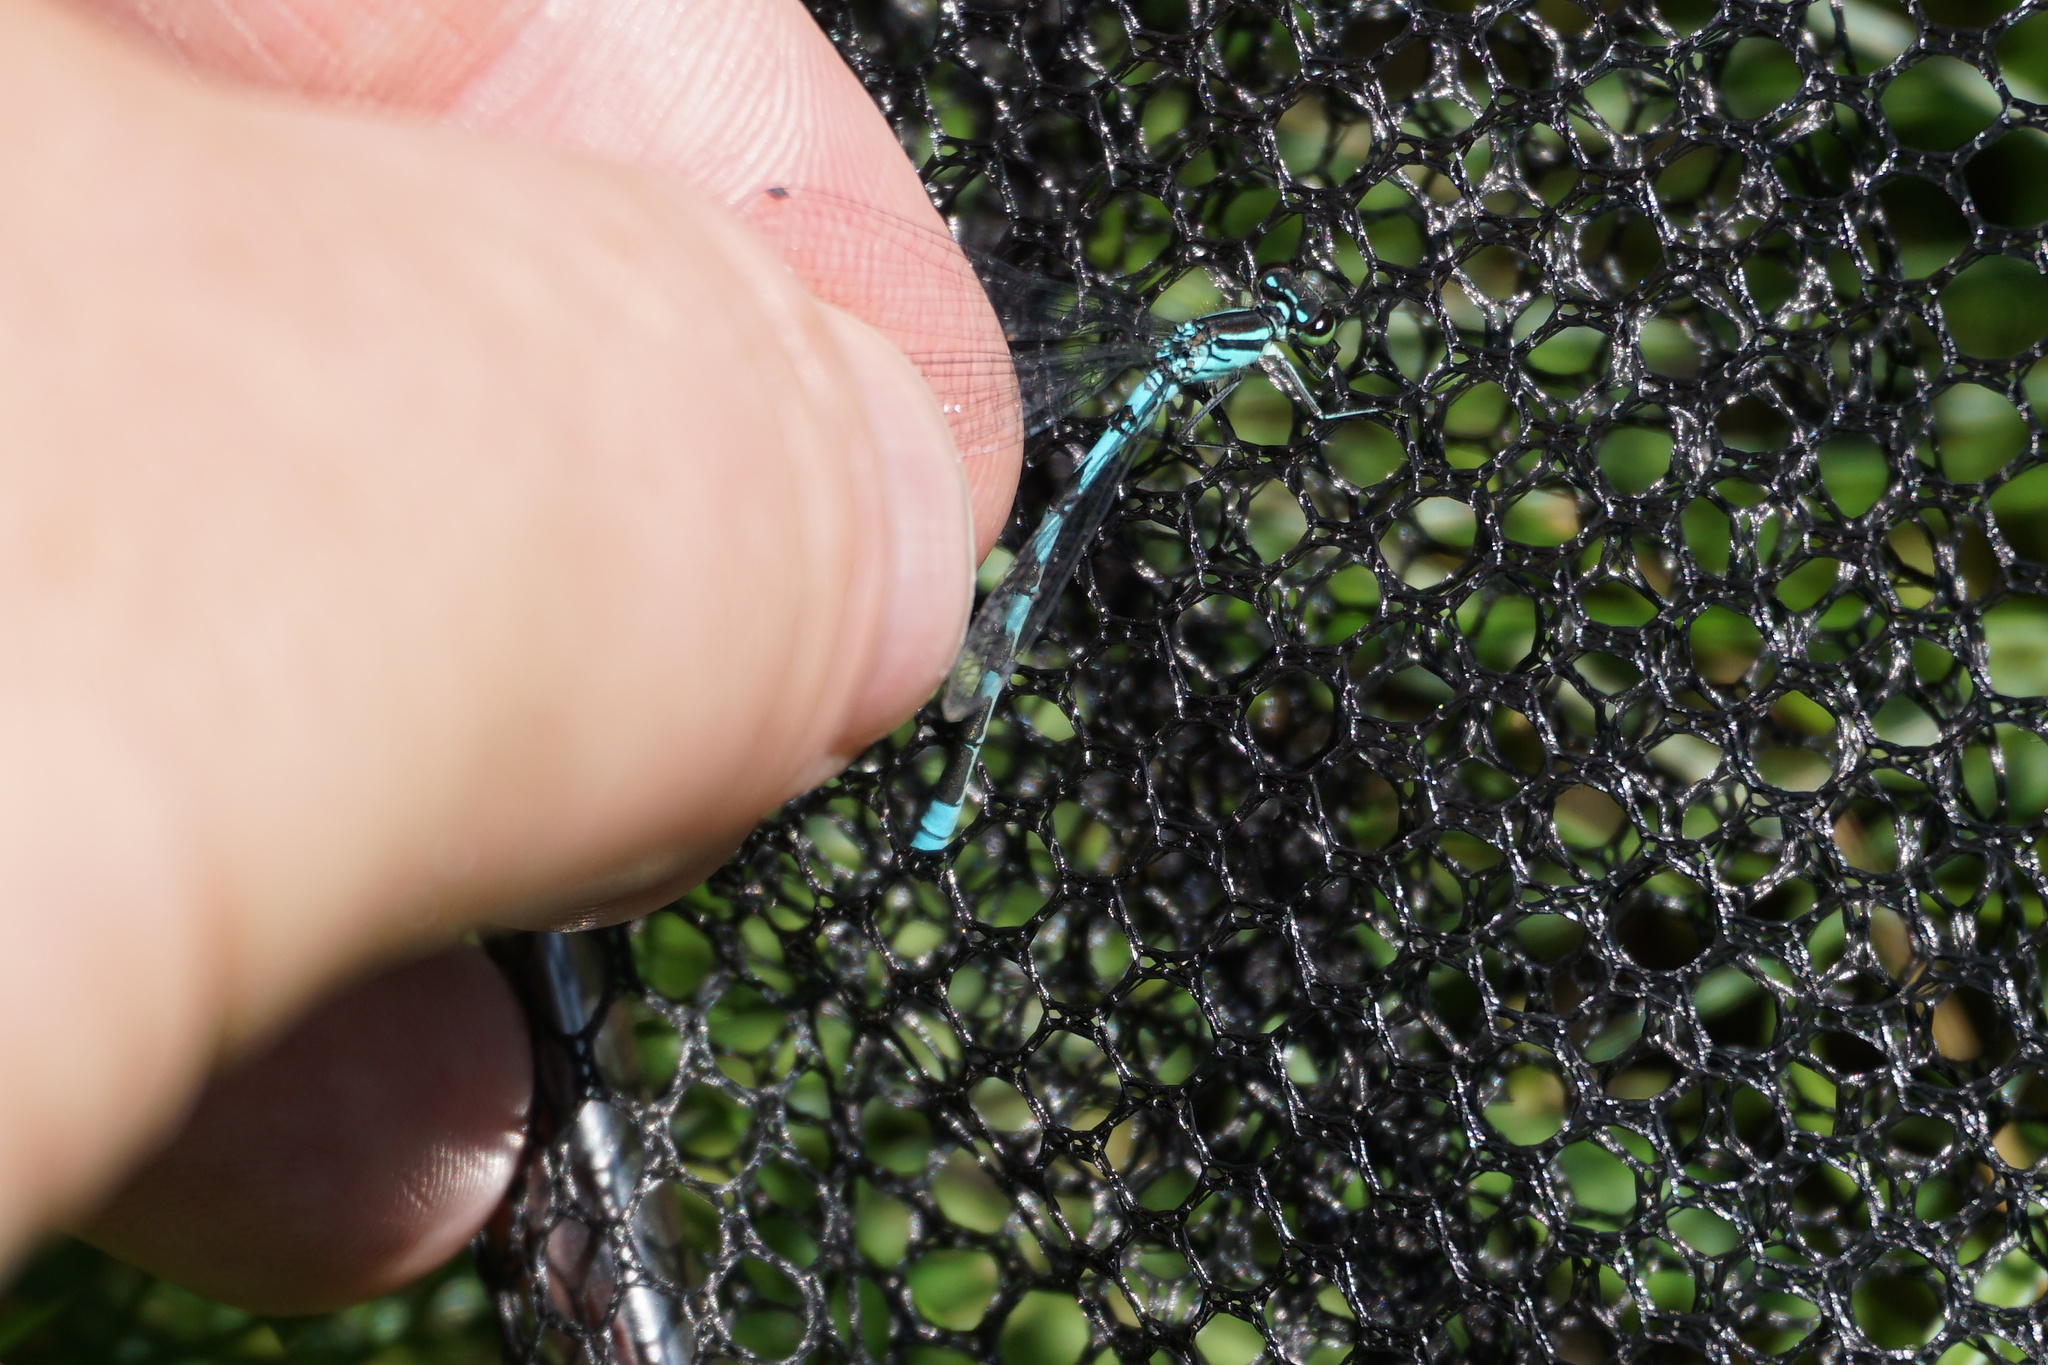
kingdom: Animalia
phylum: Arthropoda
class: Insecta
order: Odonata
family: Coenagrionidae
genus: Coenagrion
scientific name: Coenagrion hastulatum
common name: Spearhead bluet
